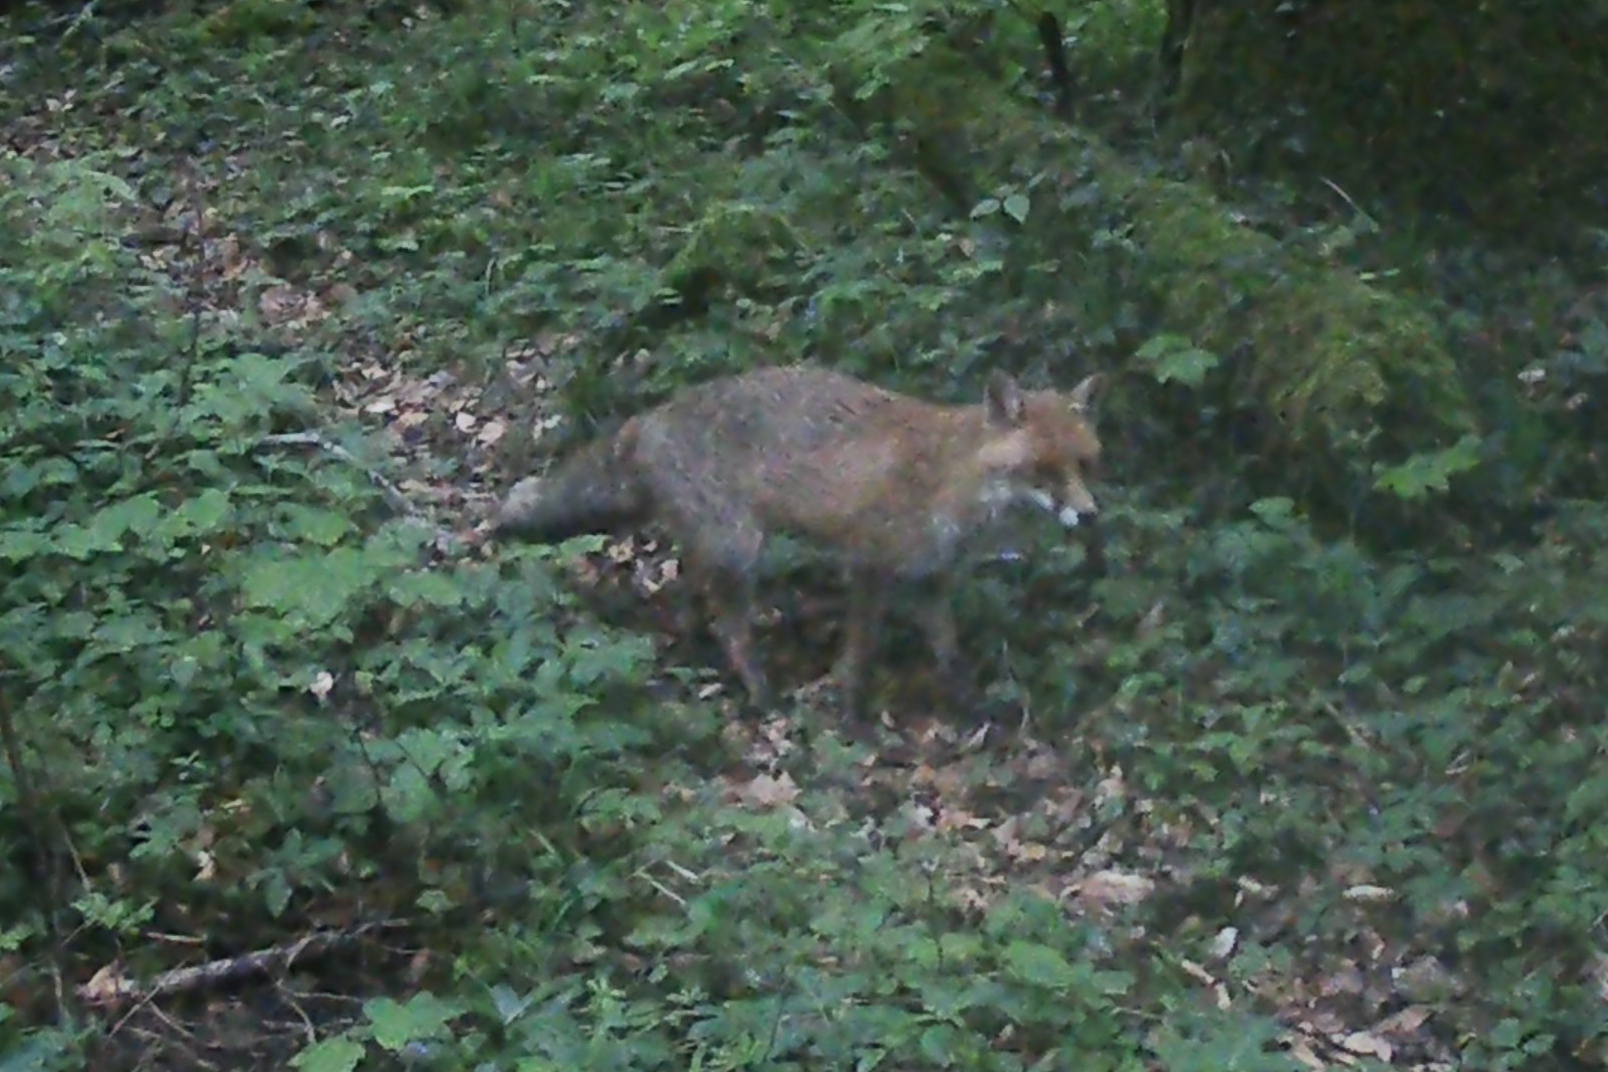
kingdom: Animalia
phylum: Chordata
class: Mammalia
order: Carnivora
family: Canidae
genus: Vulpes
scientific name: Vulpes vulpes
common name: Red fox
